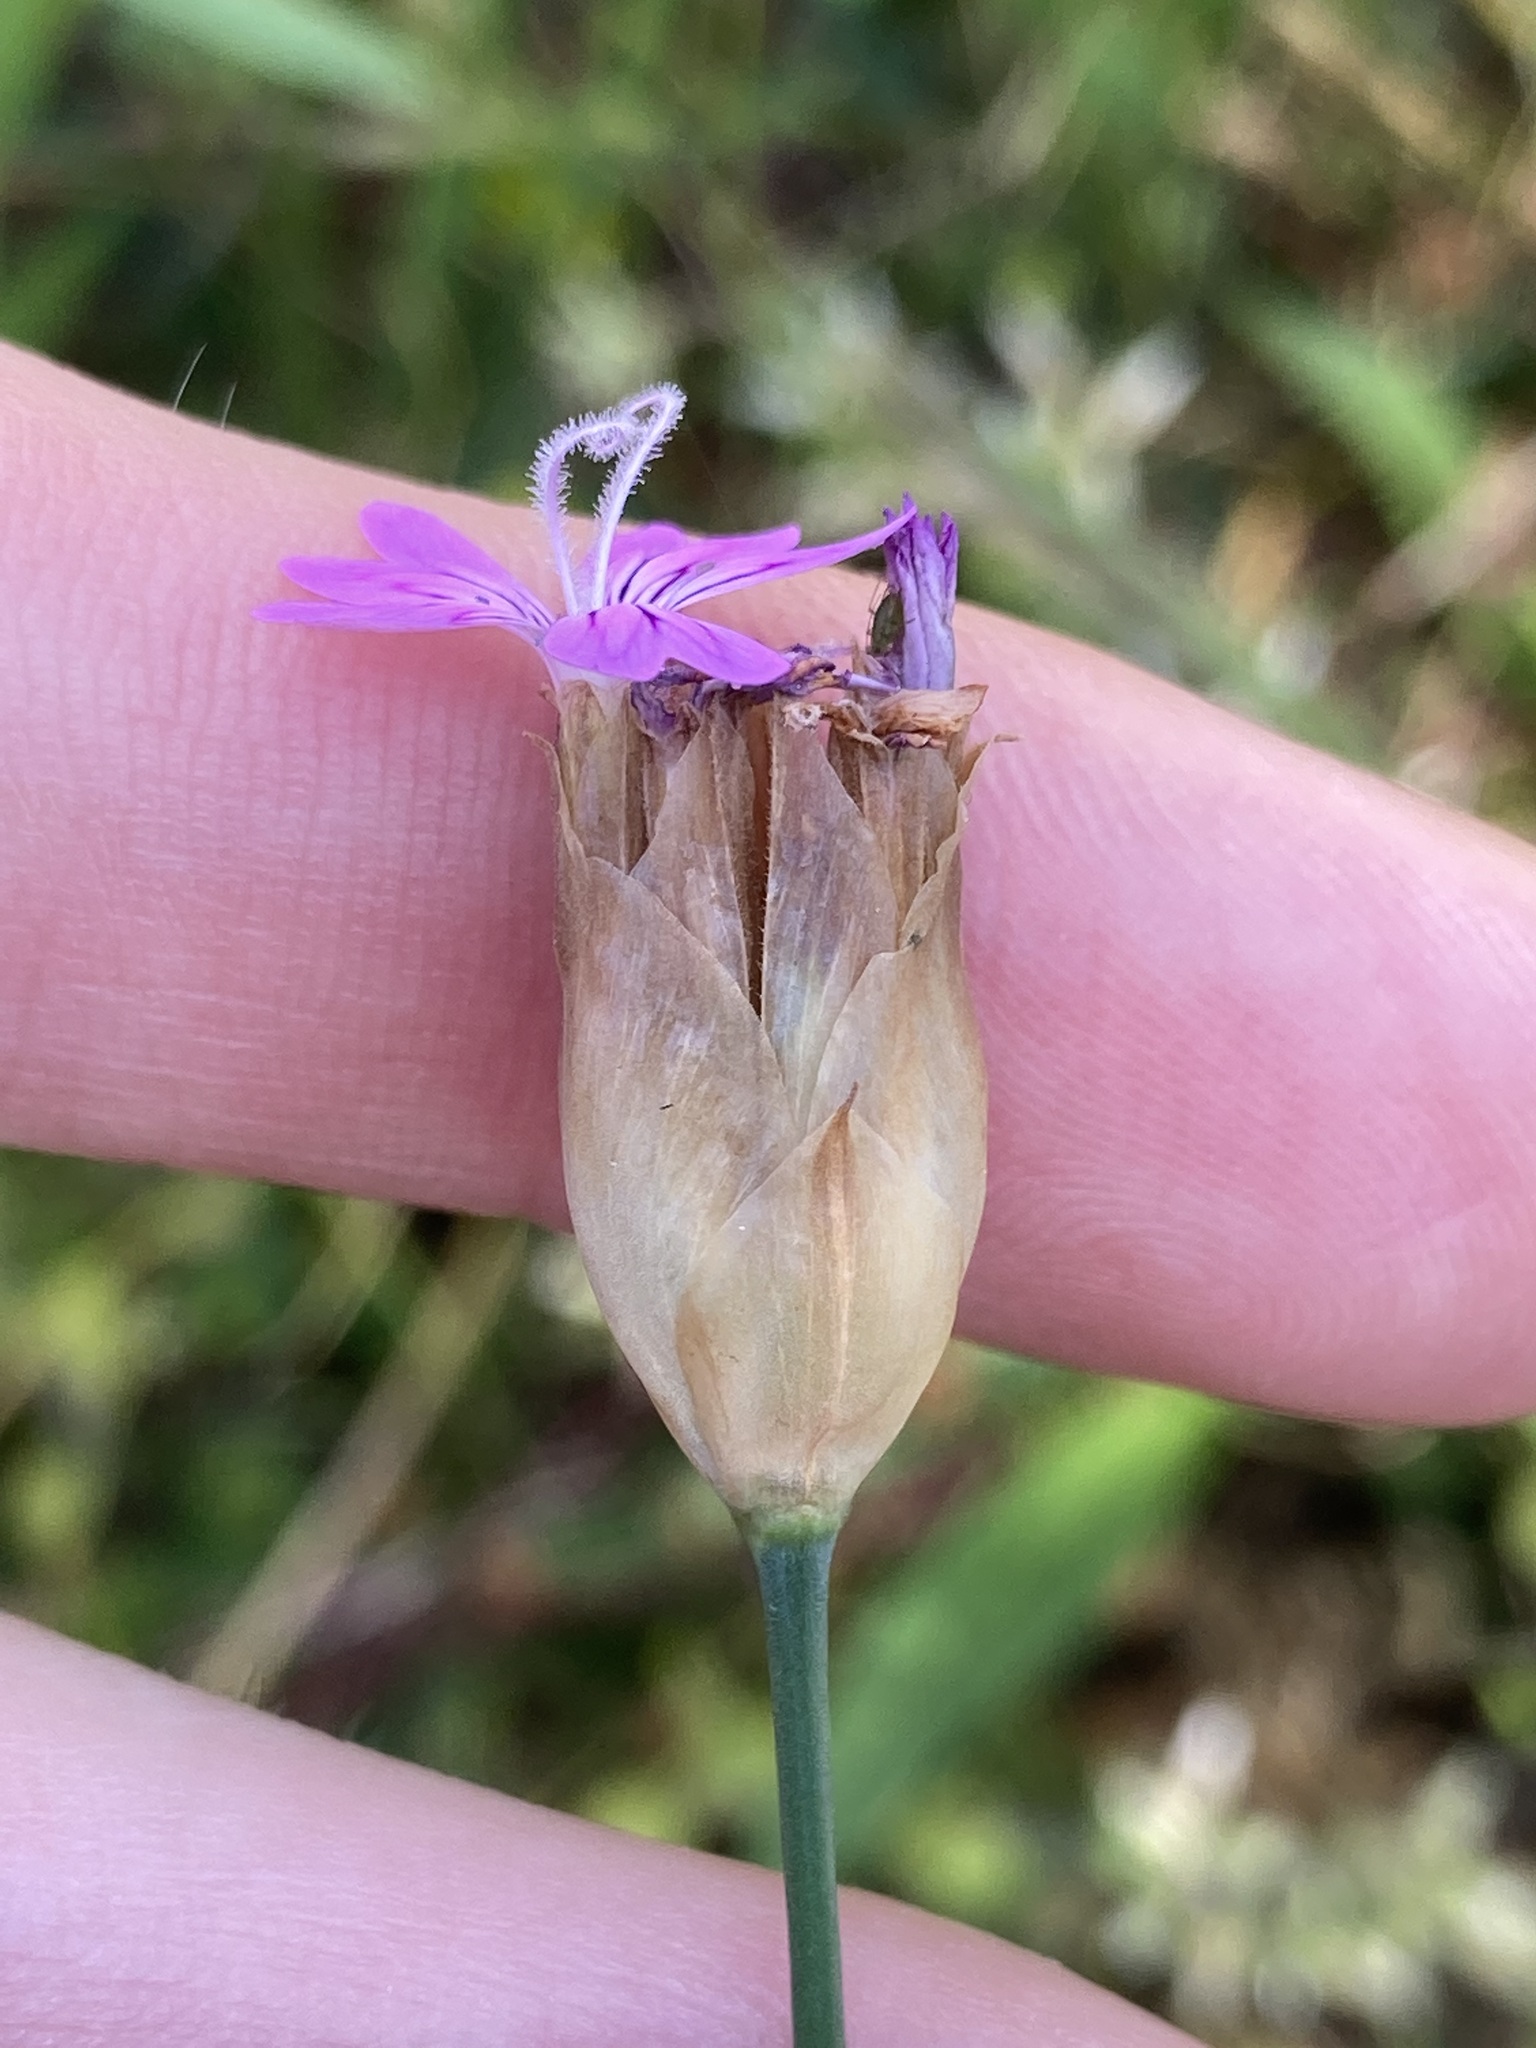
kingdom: Plantae
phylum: Tracheophyta
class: Magnoliopsida
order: Caryophyllales
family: Caryophyllaceae
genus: Petrorhagia
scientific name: Petrorhagia dubia
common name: Hairypink
